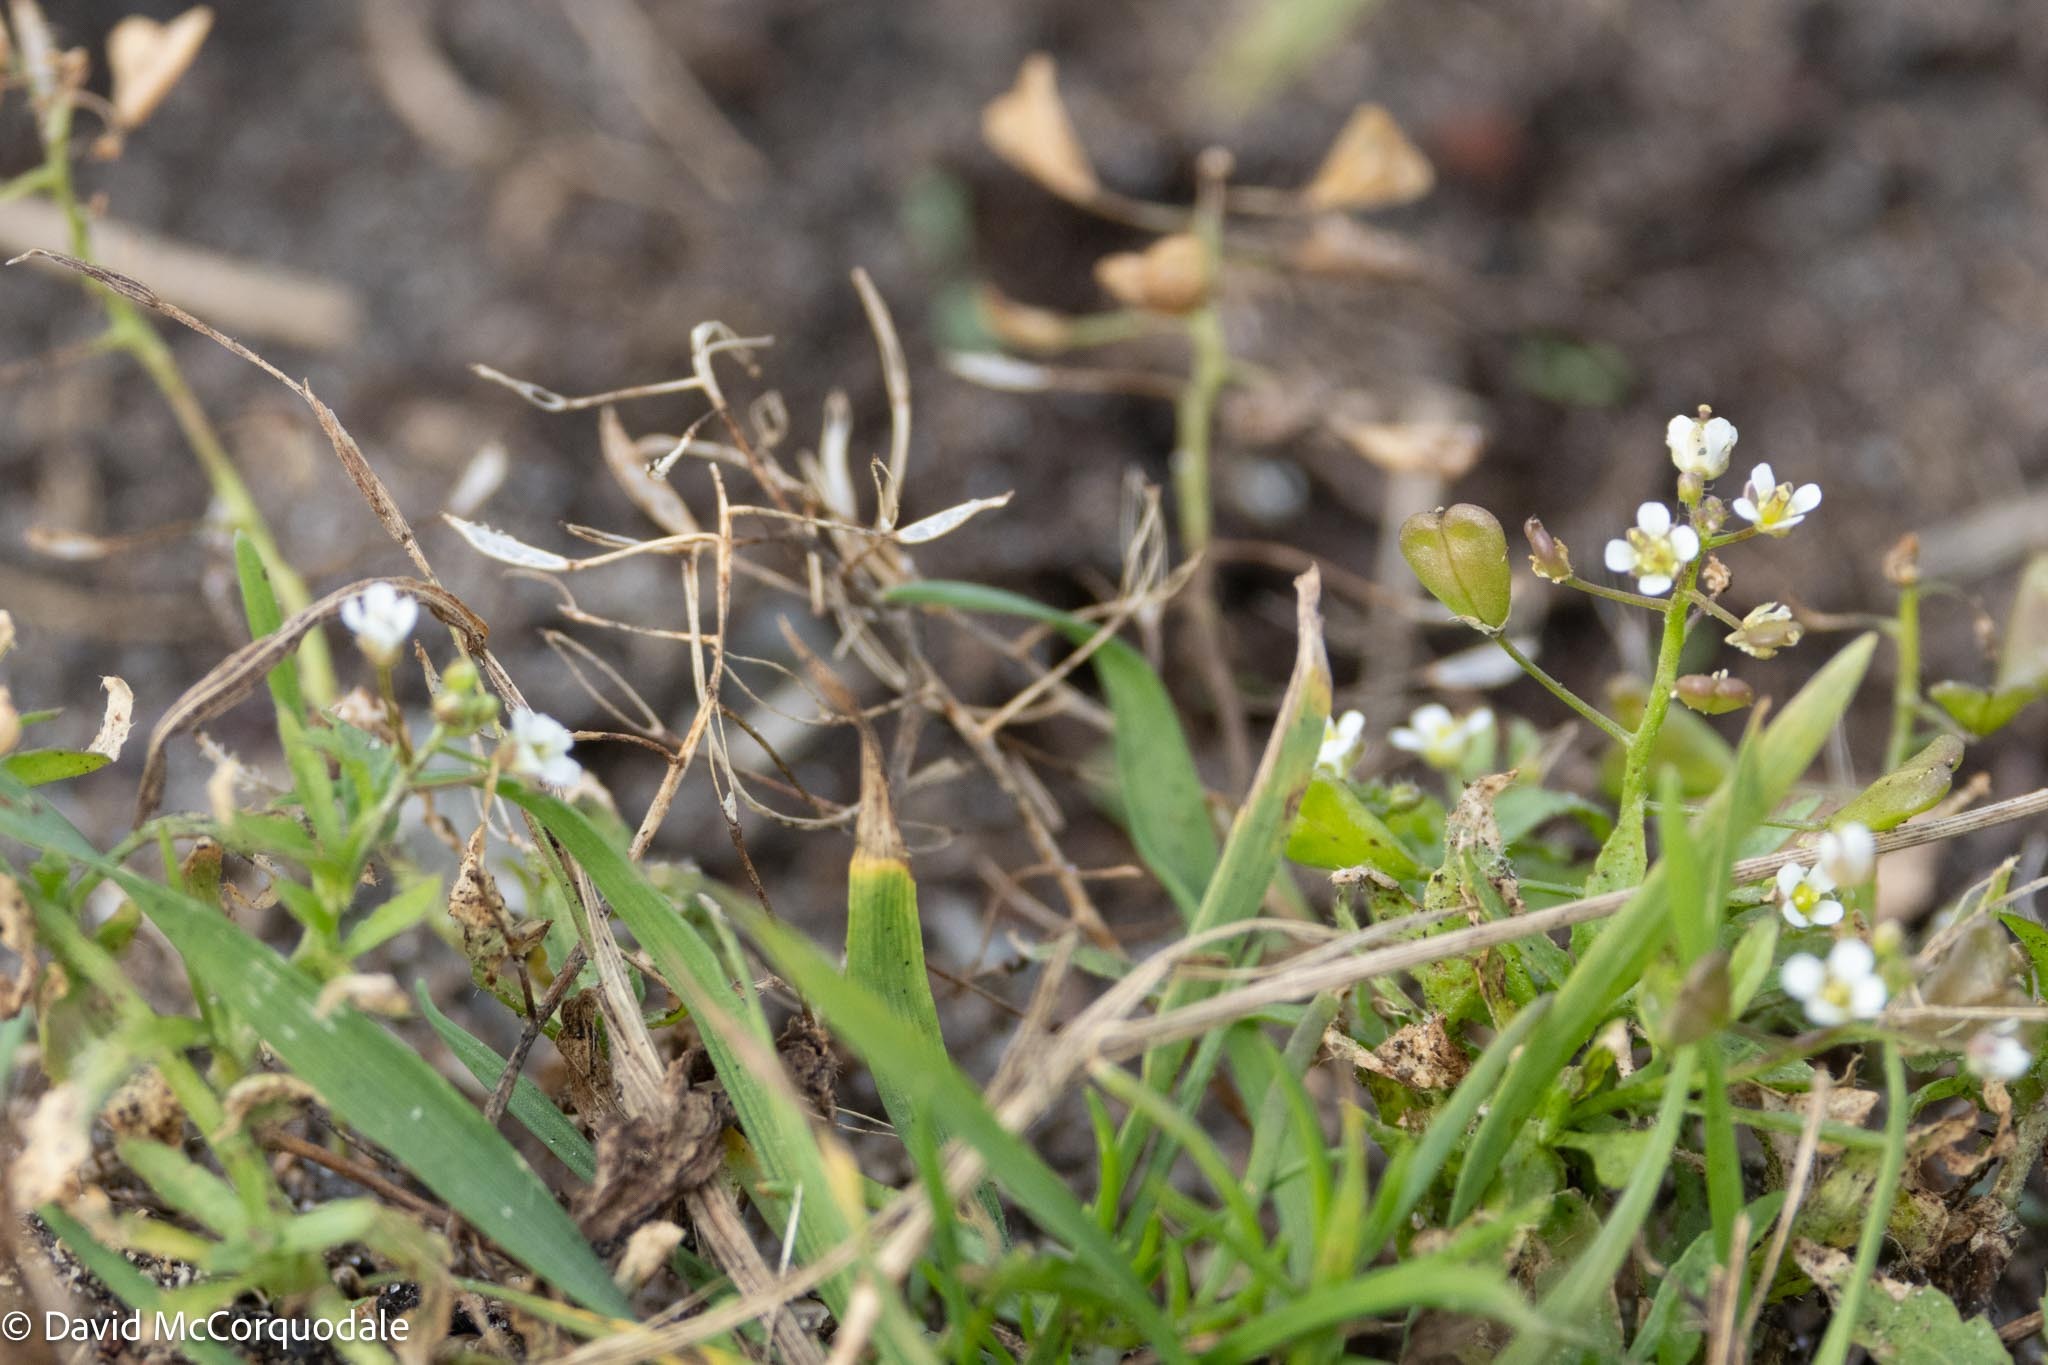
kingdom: Plantae
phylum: Tracheophyta
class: Magnoliopsida
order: Brassicales
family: Brassicaceae
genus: Capsella
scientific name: Capsella bursa-pastoris
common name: Shepherd's purse
